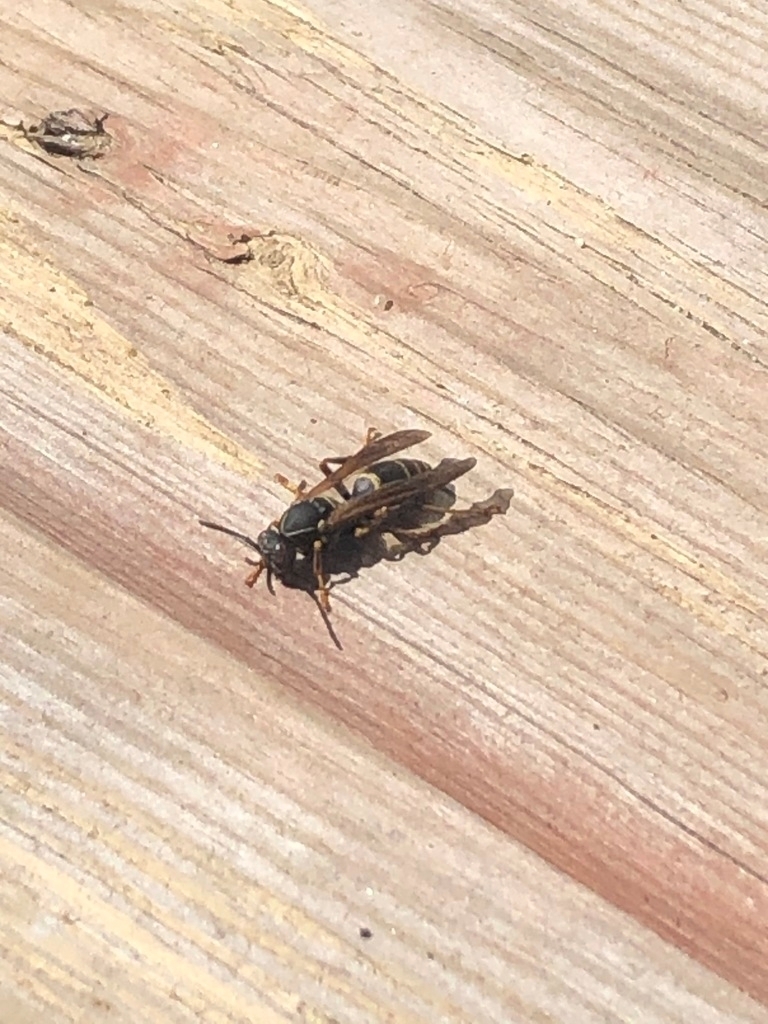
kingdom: Animalia
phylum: Arthropoda
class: Insecta
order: Hymenoptera
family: Eumenidae
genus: Polistes
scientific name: Polistes fuscatus
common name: Dark paper wasp
